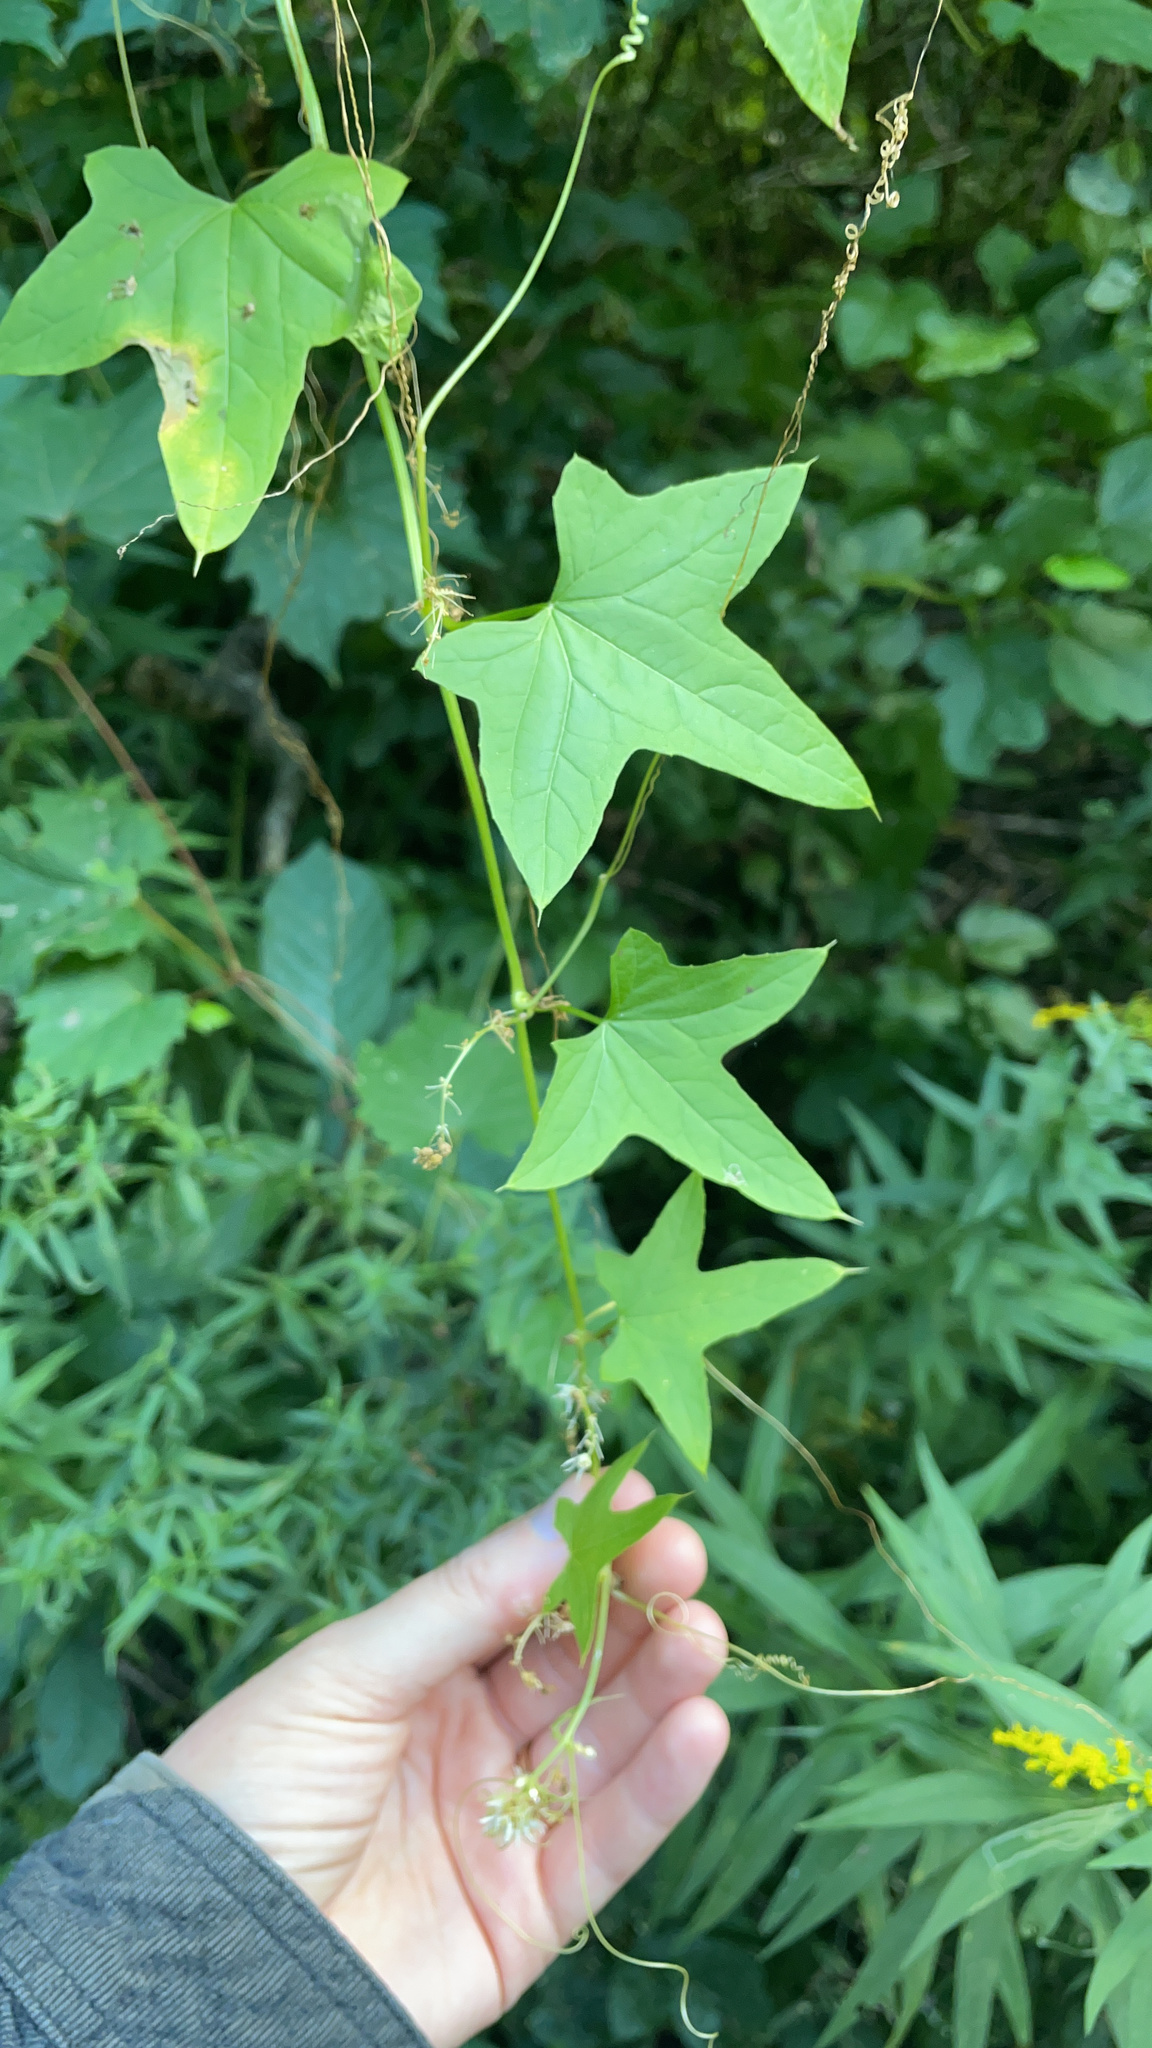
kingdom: Plantae
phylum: Tracheophyta
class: Magnoliopsida
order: Cucurbitales
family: Cucurbitaceae
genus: Echinocystis
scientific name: Echinocystis lobata
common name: Wild cucumber
